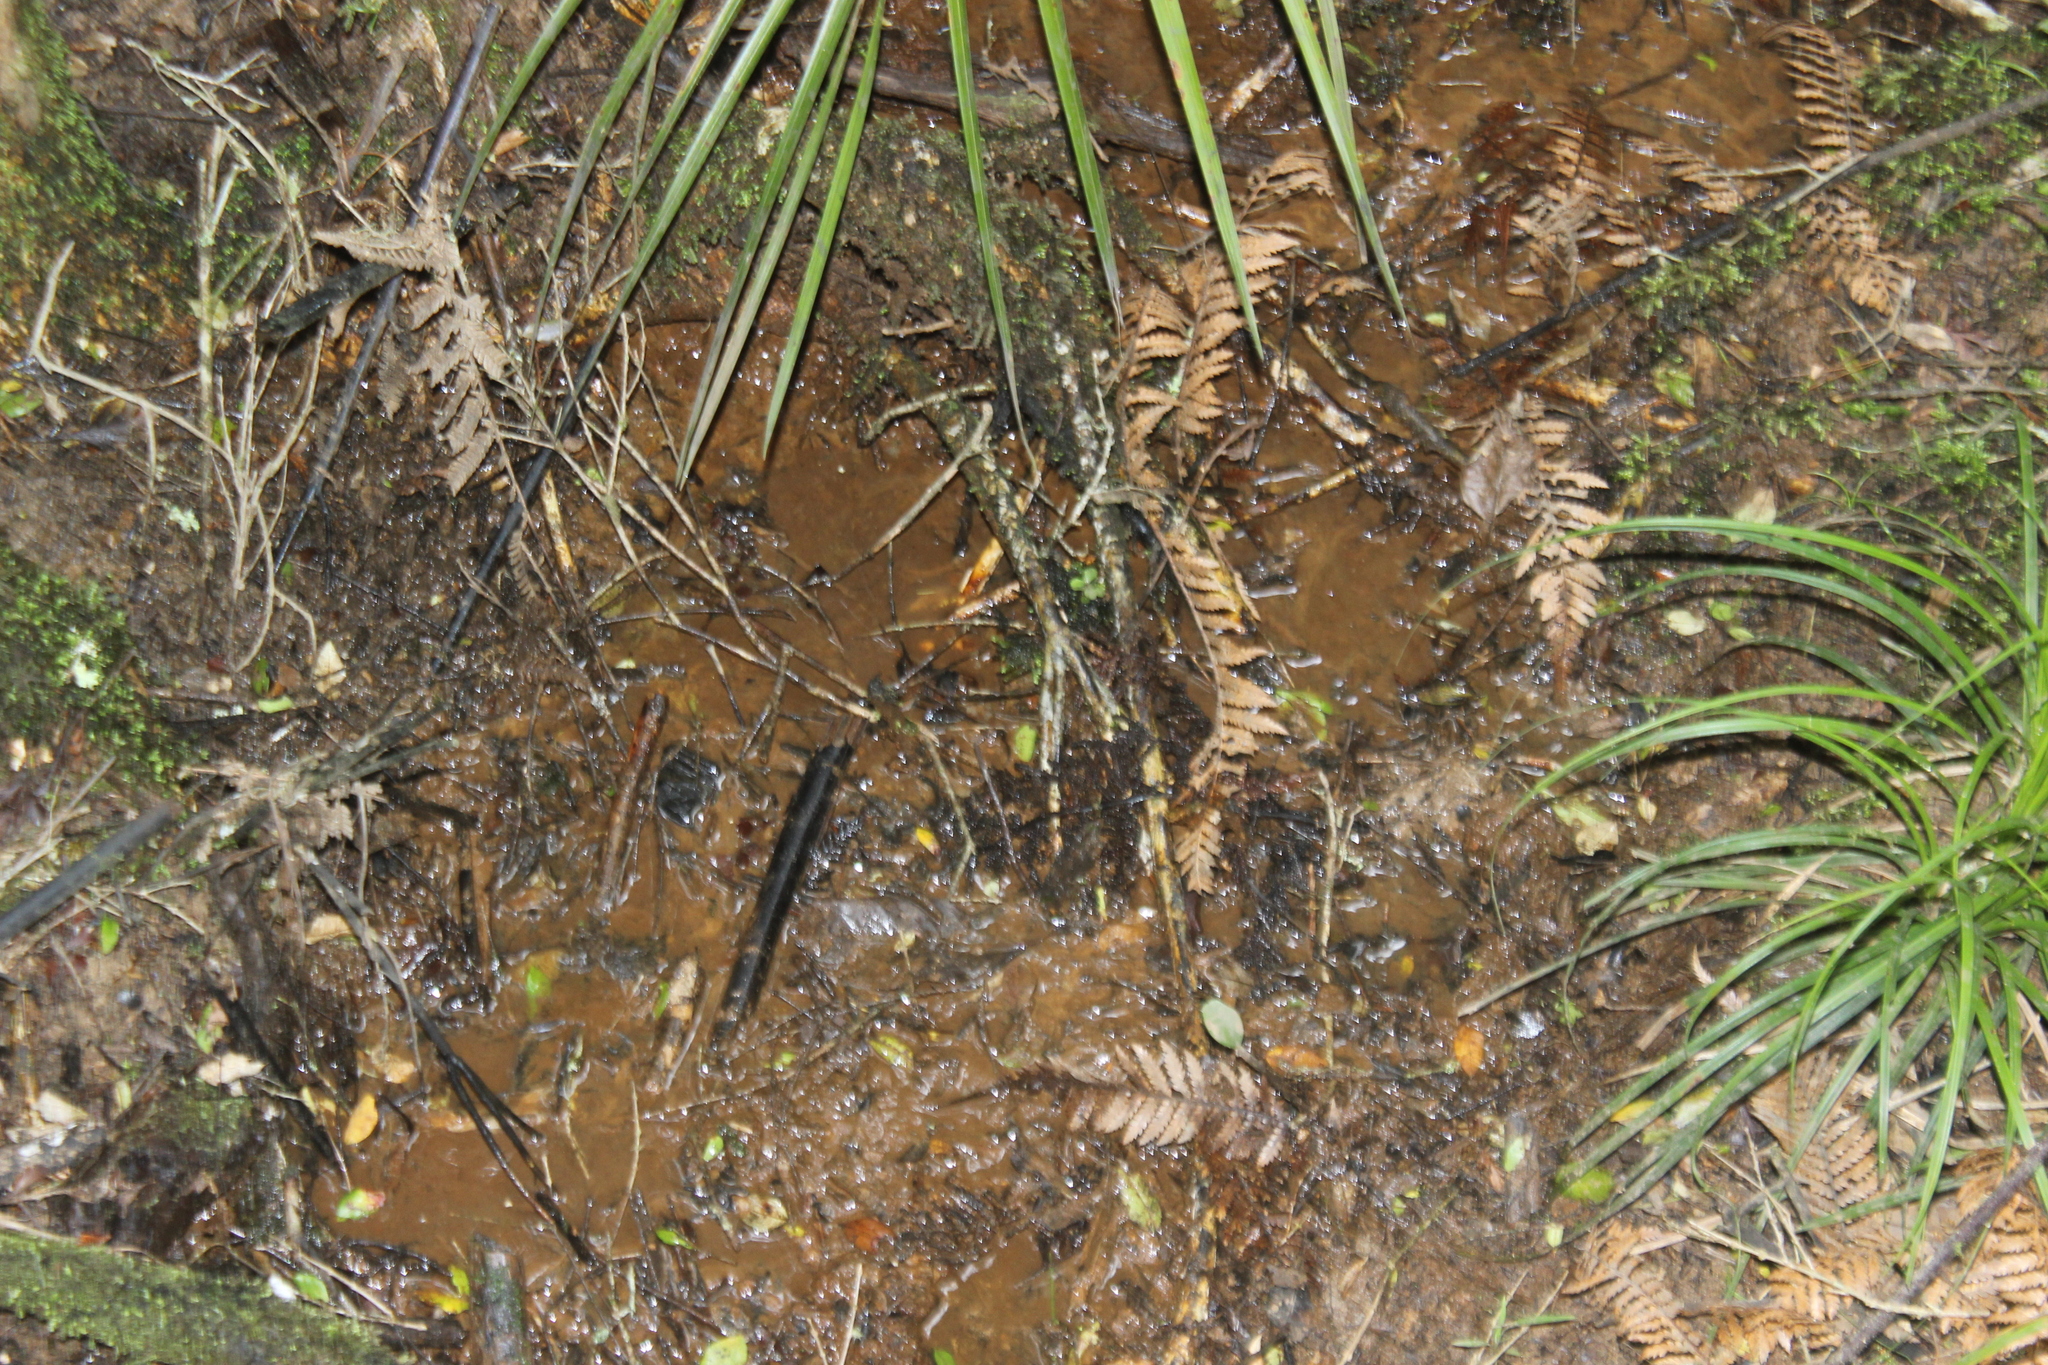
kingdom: Plantae
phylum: Tracheophyta
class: Magnoliopsida
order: Myrtales
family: Myrtaceae
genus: Syzygium
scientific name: Syzygium maire
